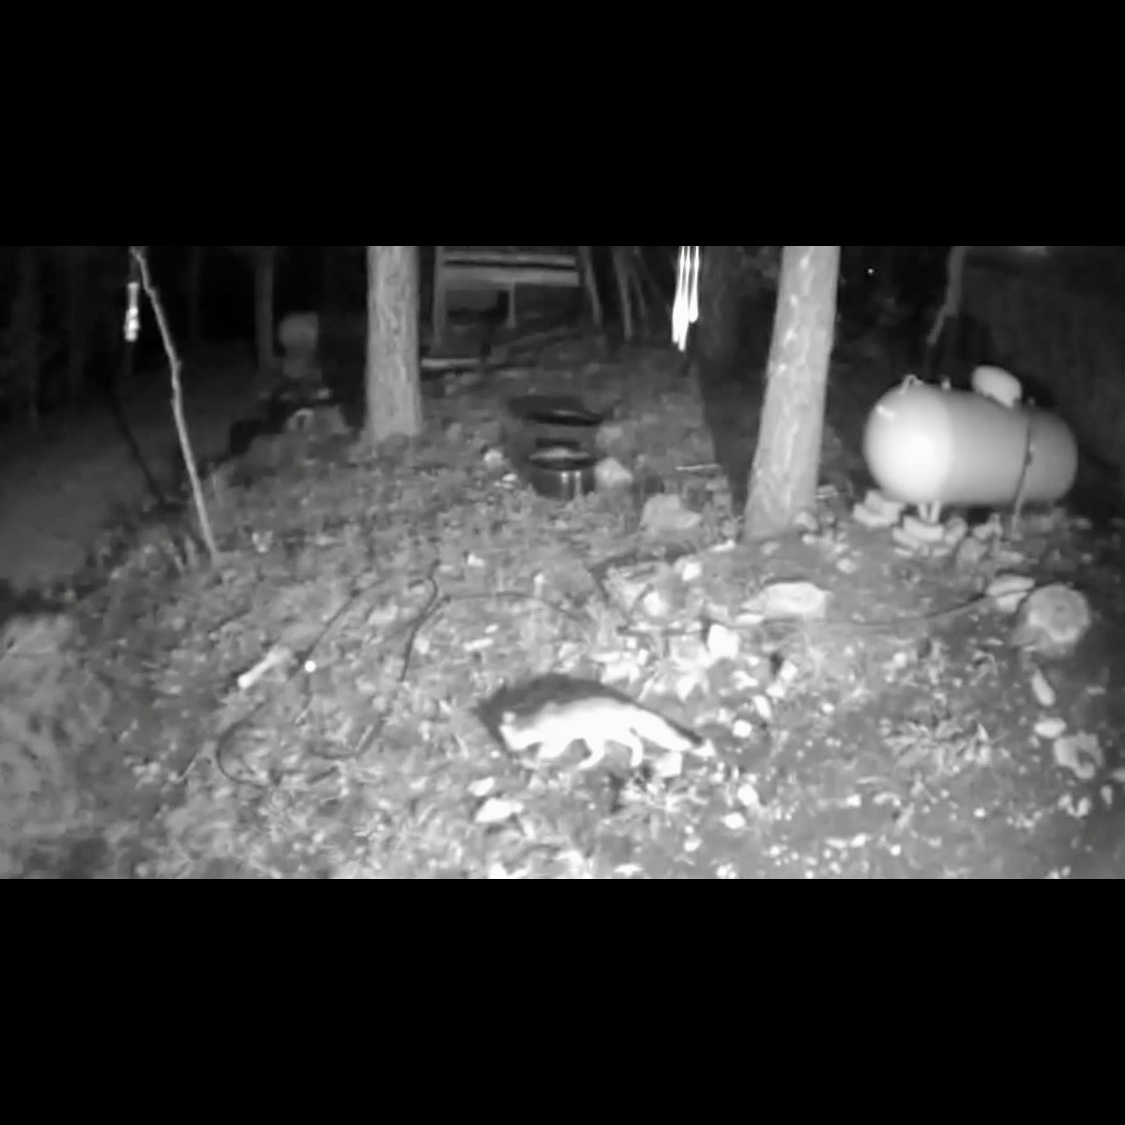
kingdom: Animalia
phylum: Chordata
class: Mammalia
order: Carnivora
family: Canidae
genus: Urocyon
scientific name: Urocyon cinereoargenteus
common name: Gray fox
